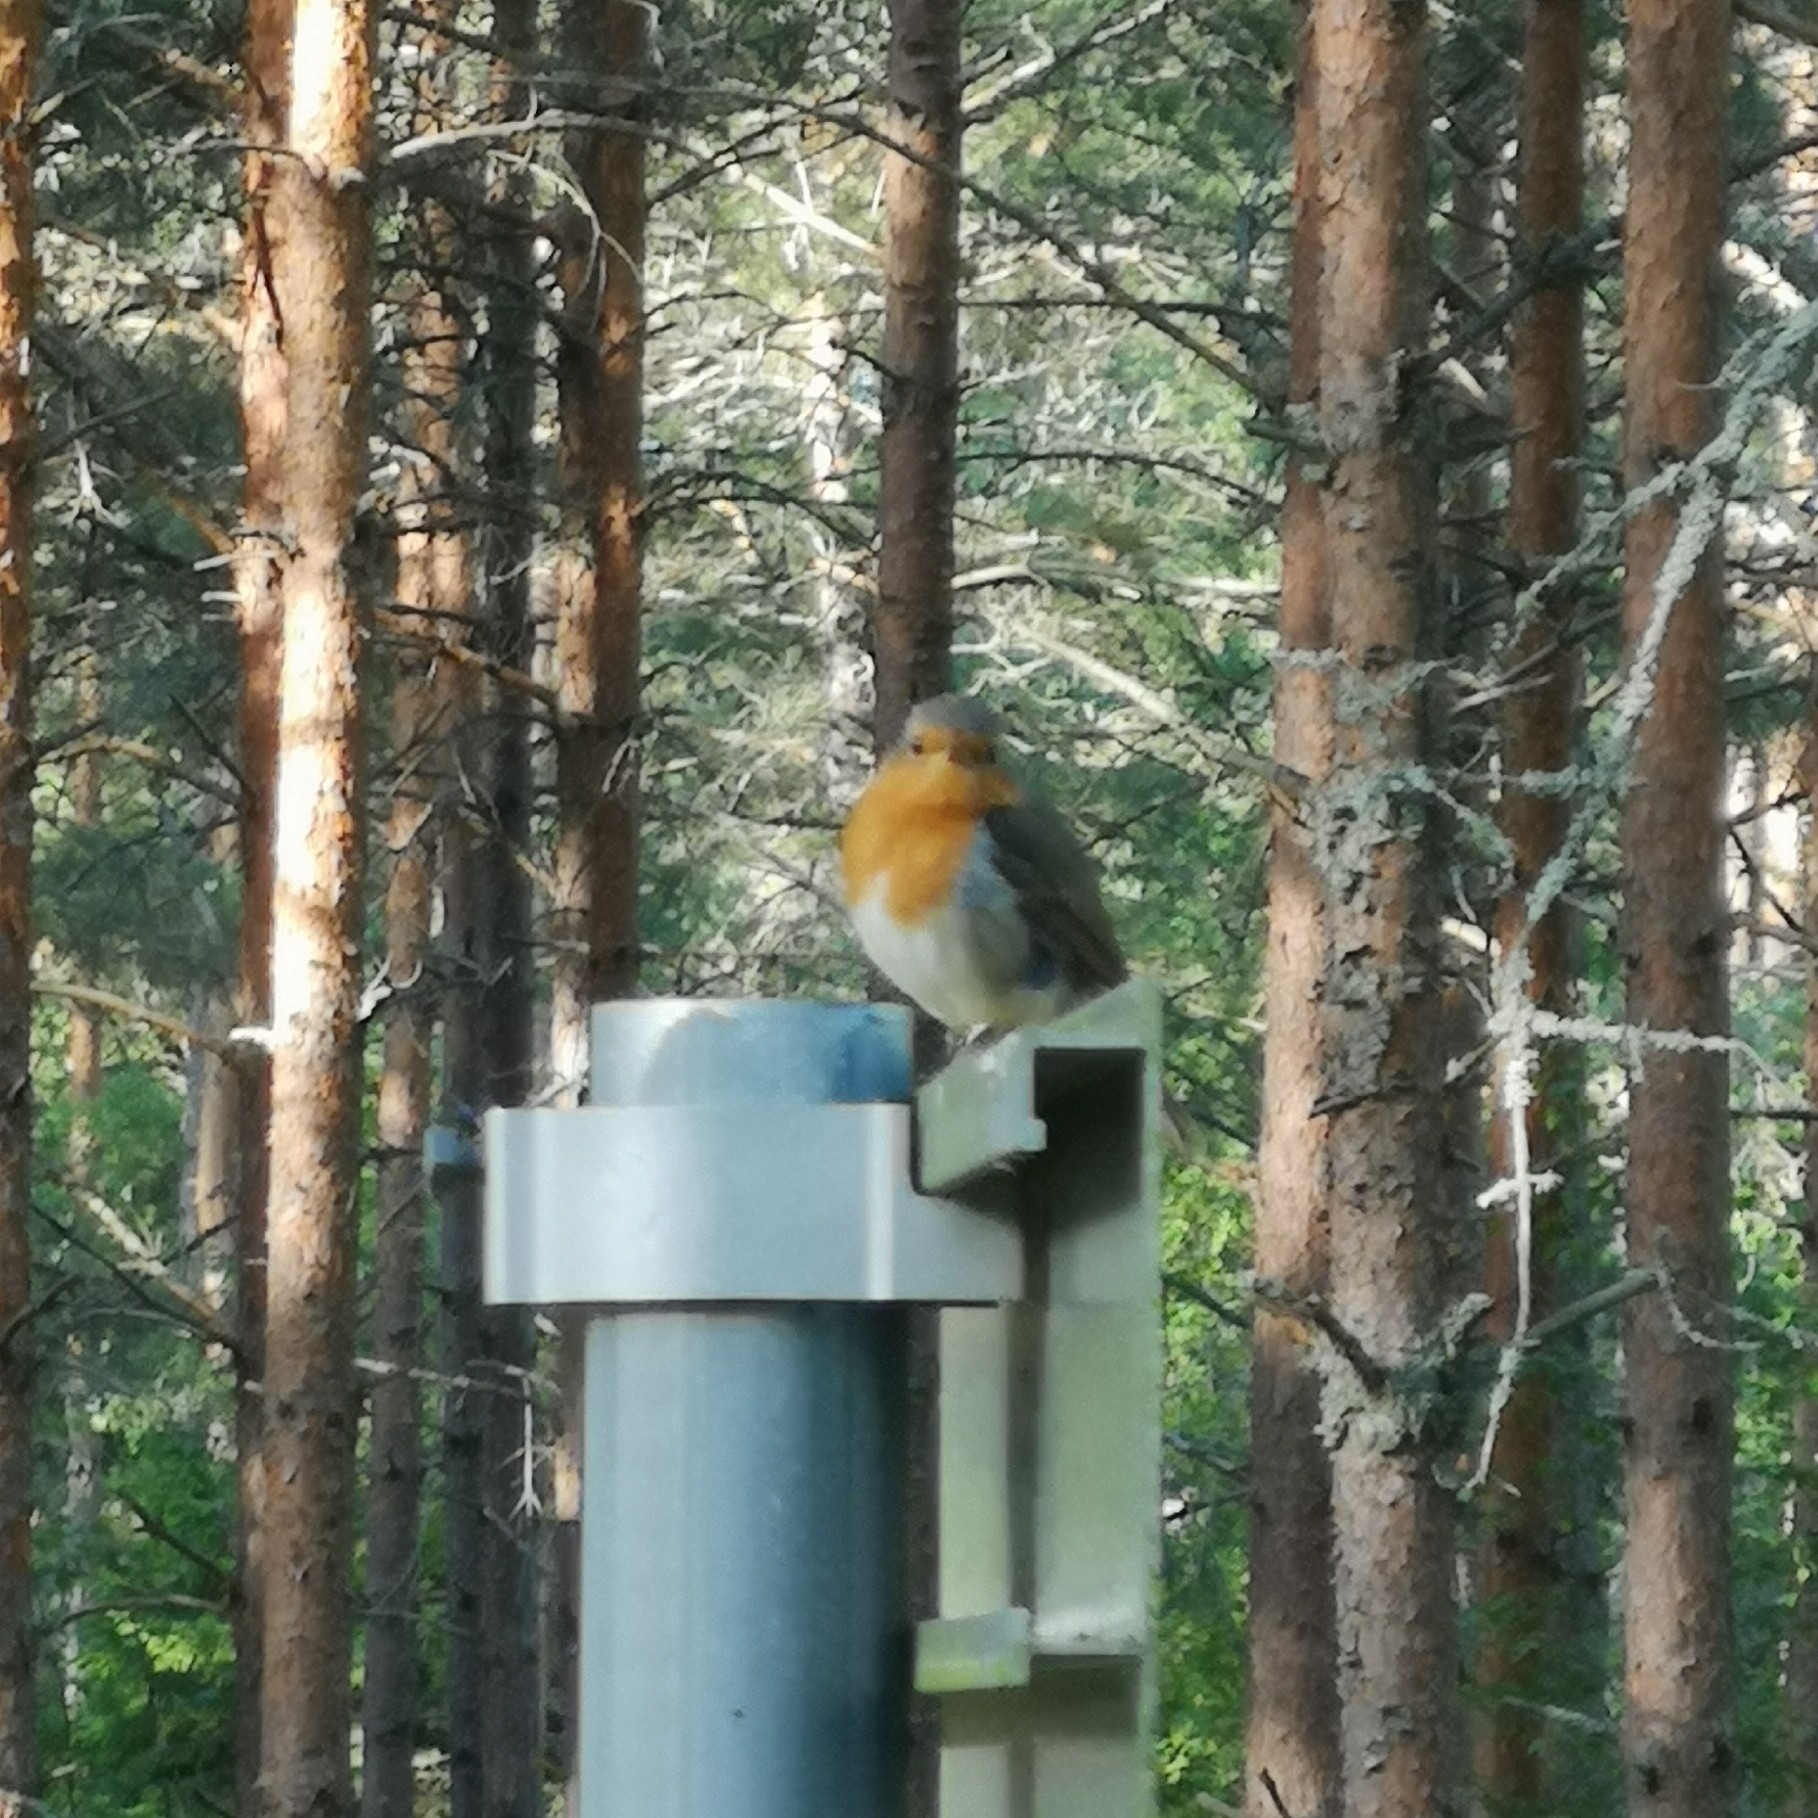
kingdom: Animalia
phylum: Chordata
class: Aves
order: Passeriformes
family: Muscicapidae
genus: Erithacus
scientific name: Erithacus rubecula
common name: European robin
